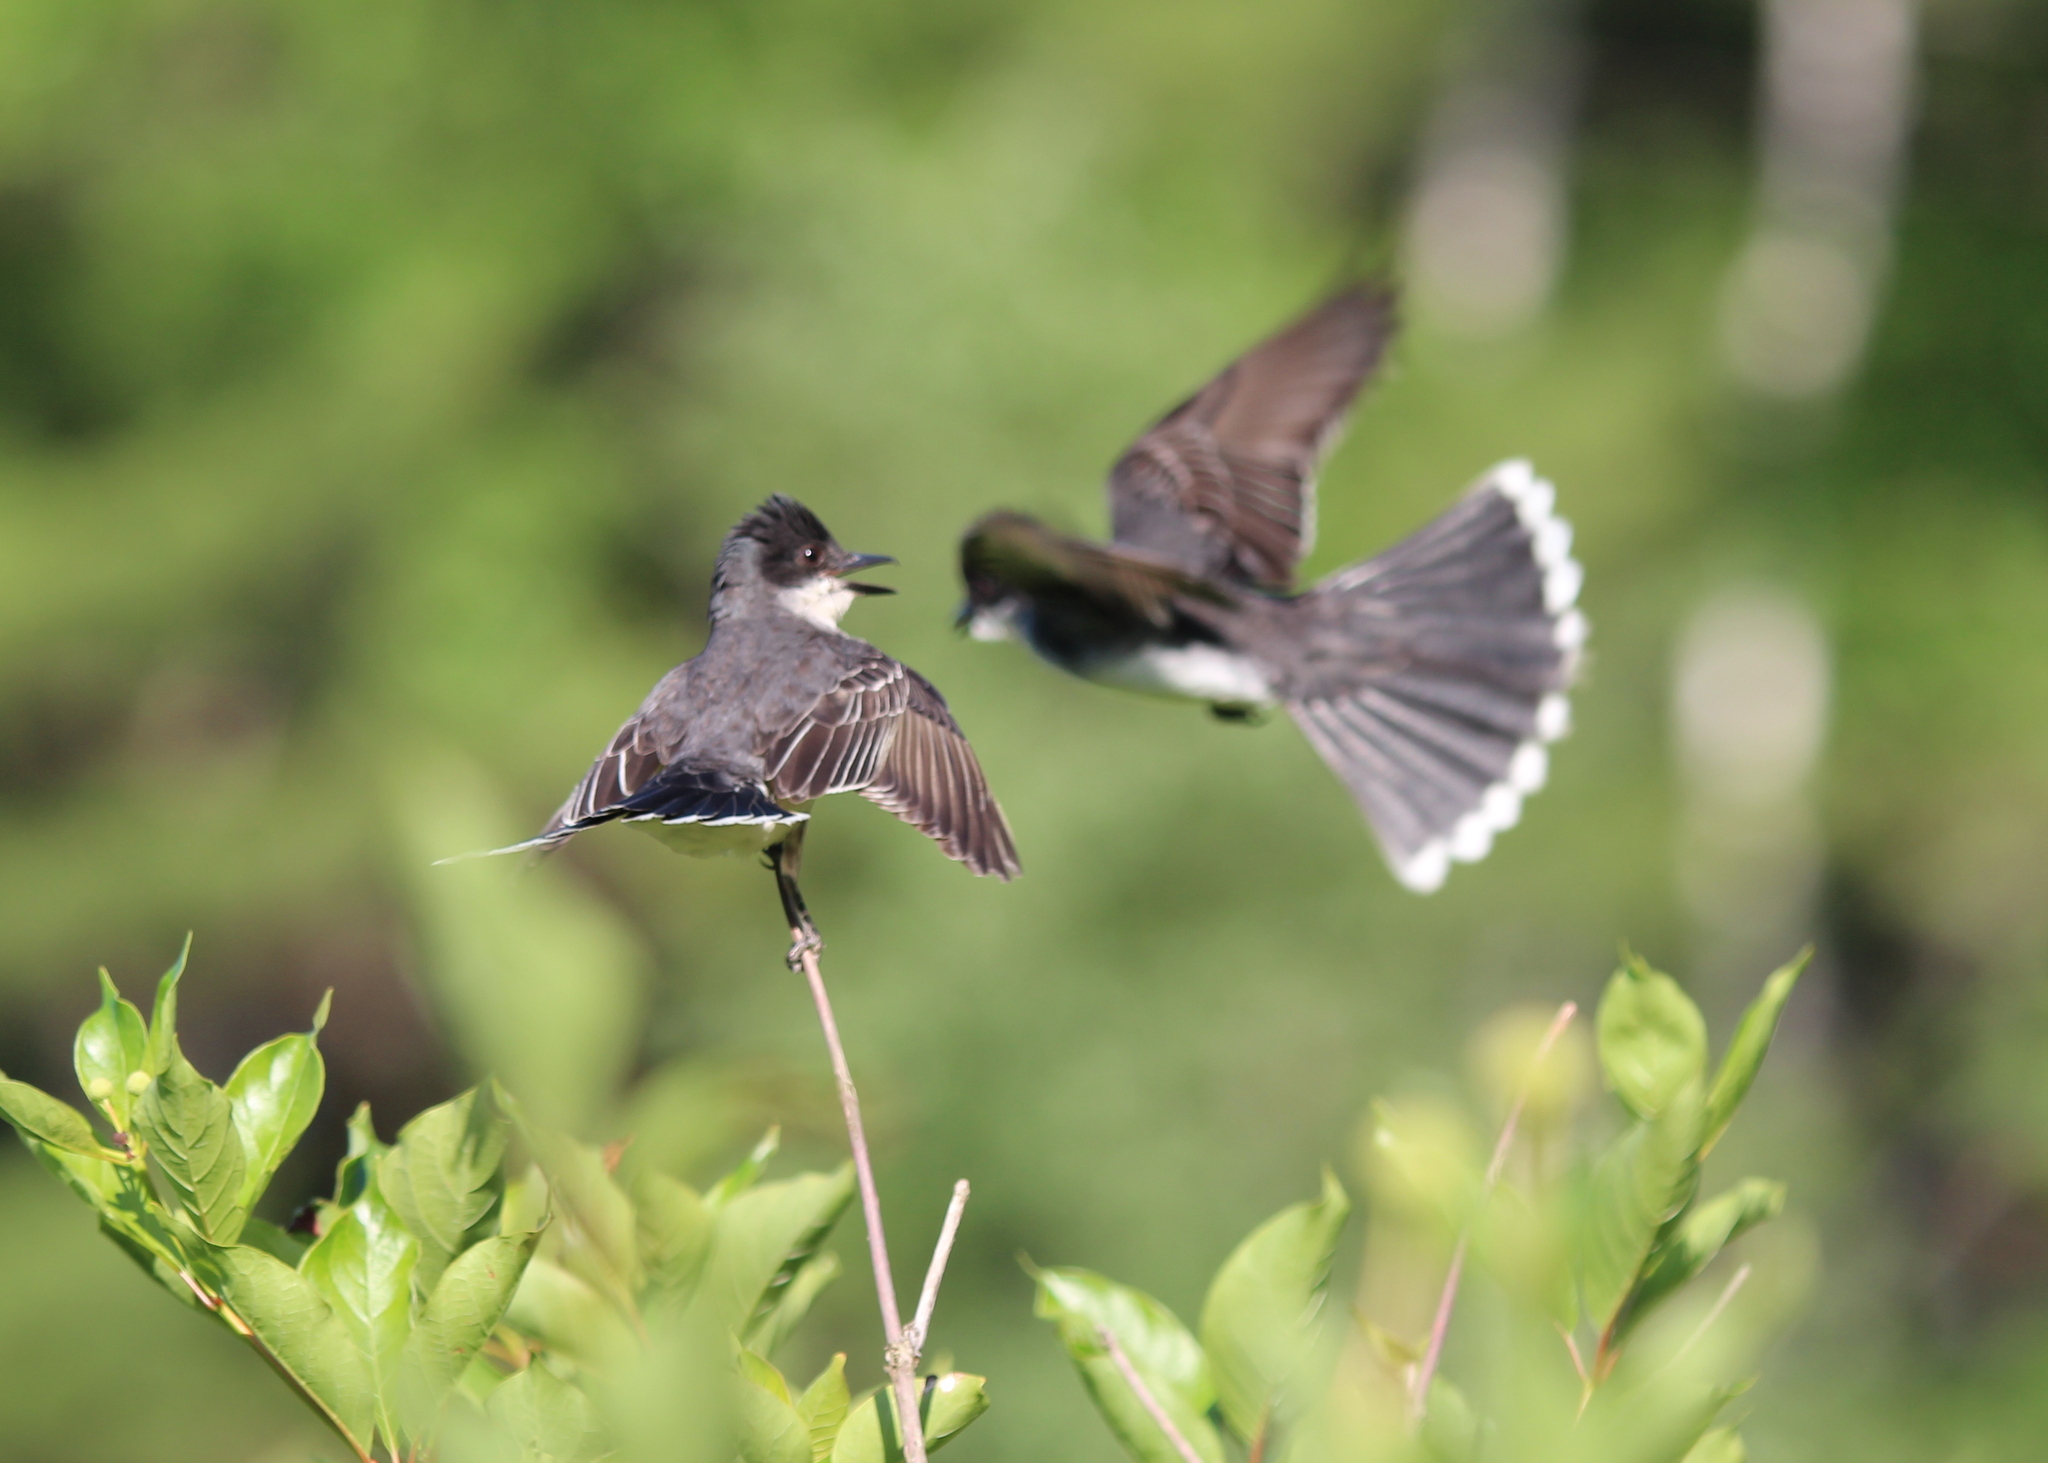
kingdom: Animalia
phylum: Chordata
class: Aves
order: Passeriformes
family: Tyrannidae
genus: Tyrannus
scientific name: Tyrannus tyrannus
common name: Eastern kingbird
